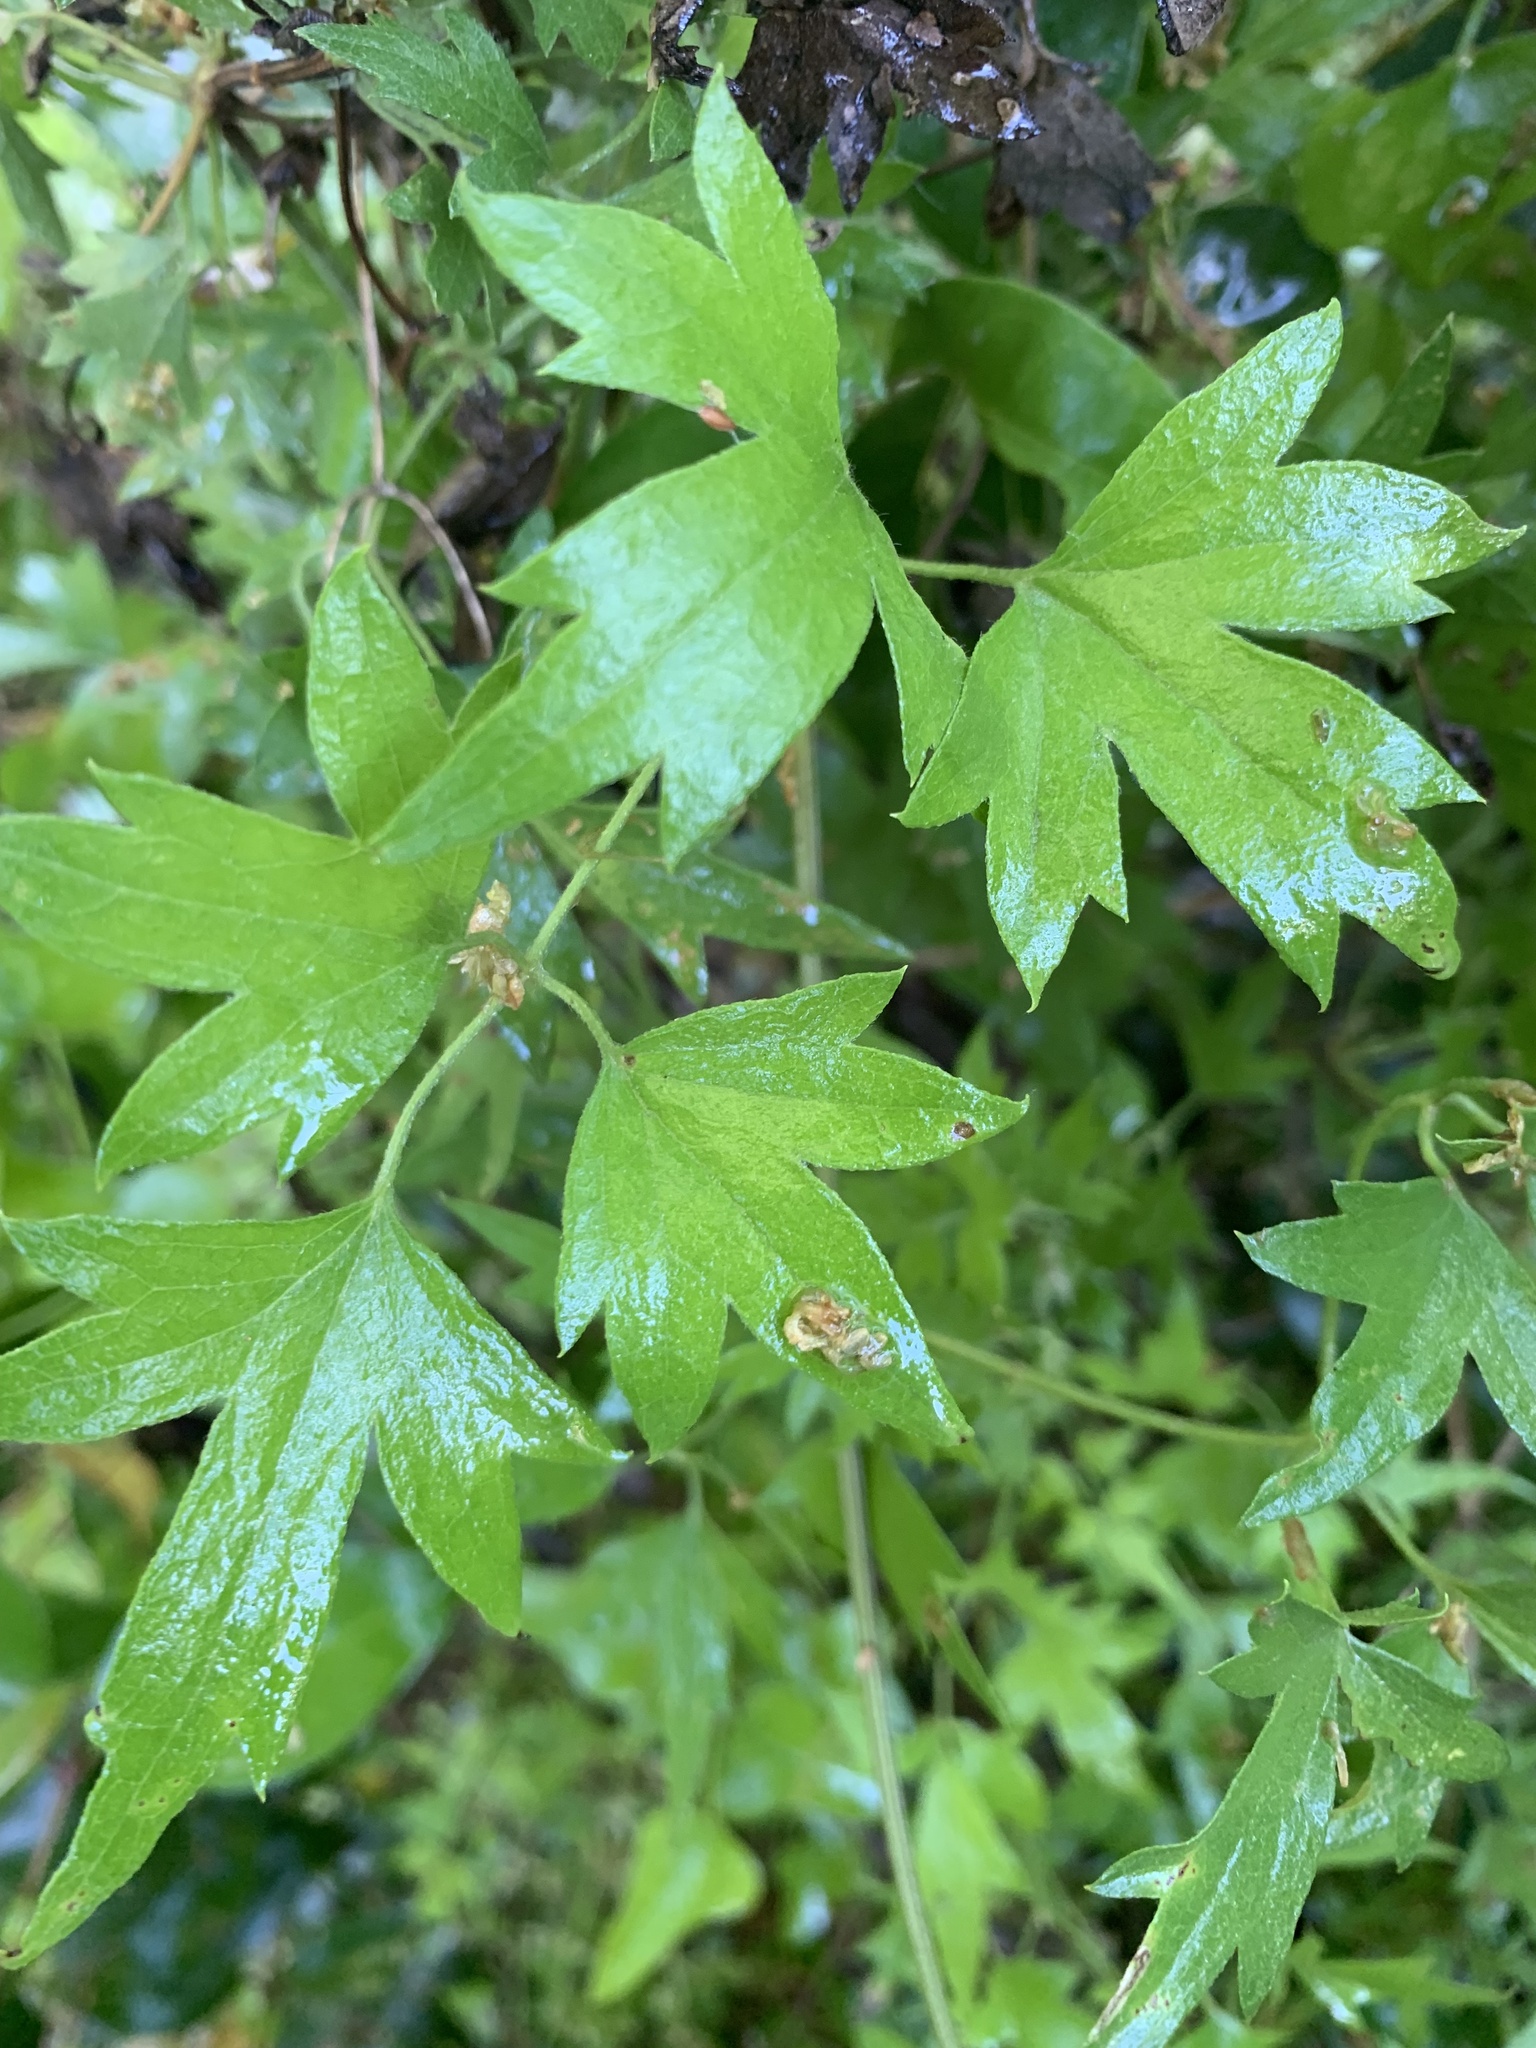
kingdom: Plantae
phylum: Tracheophyta
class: Magnoliopsida
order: Ranunculales
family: Ranunculaceae
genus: Clematis
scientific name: Clematis drummondii
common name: Texas virgin's bower
